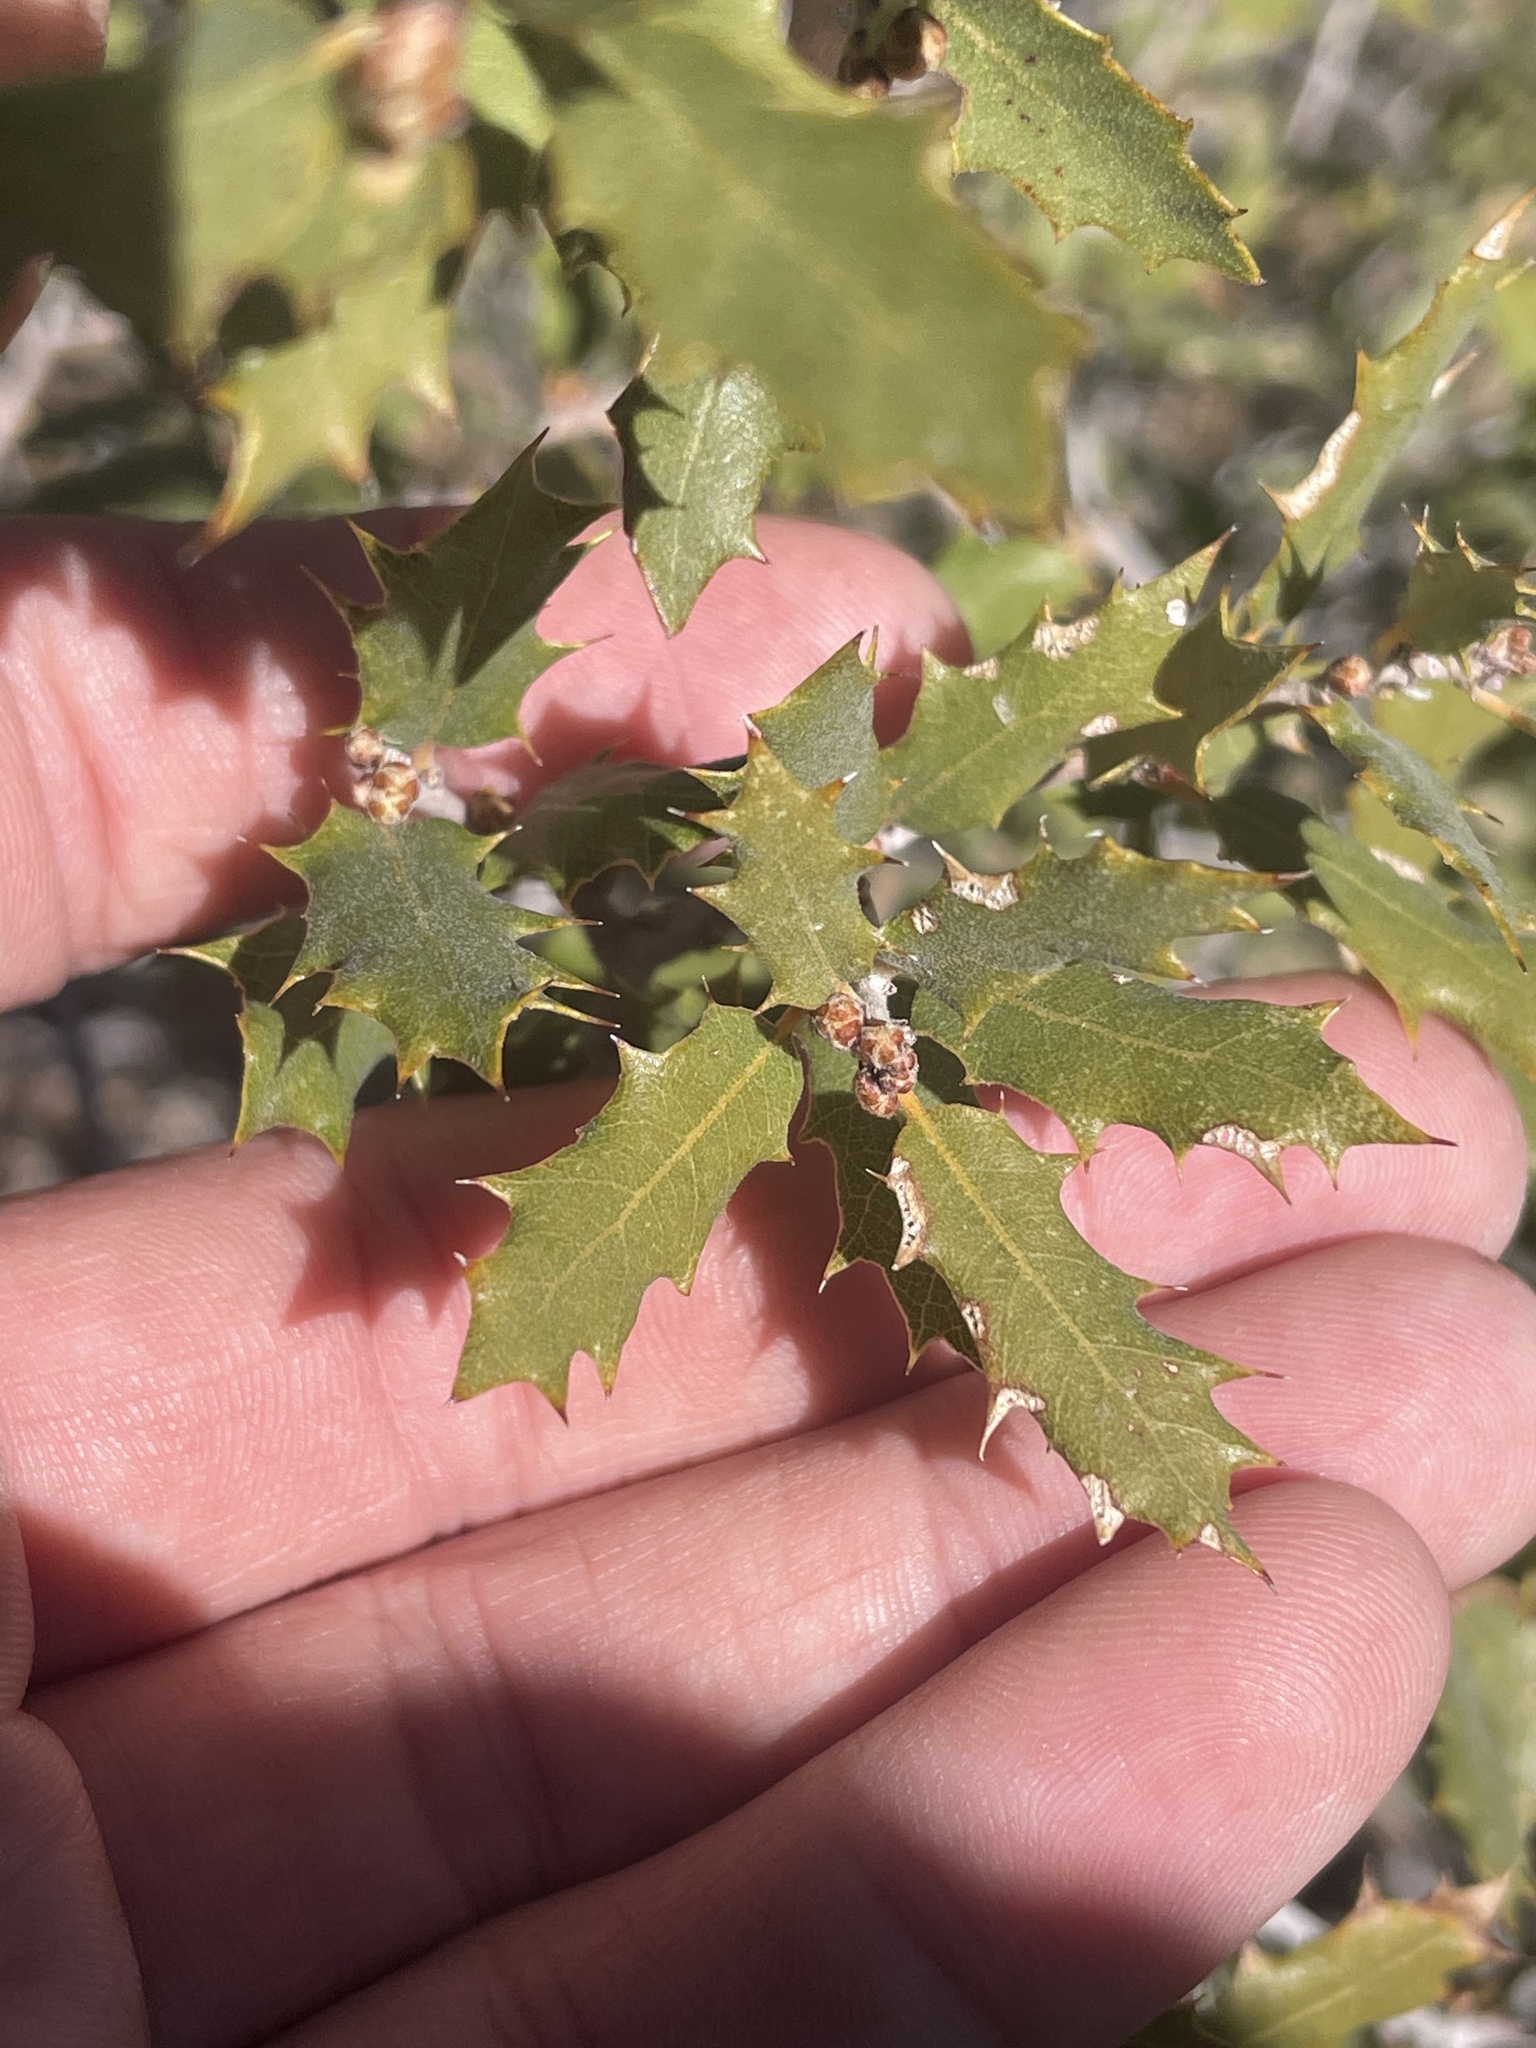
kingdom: Plantae
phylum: Tracheophyta
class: Magnoliopsida
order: Fagales
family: Fagaceae
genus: Quercus
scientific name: Quercus turbinella
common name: Sonoran scrub oak
